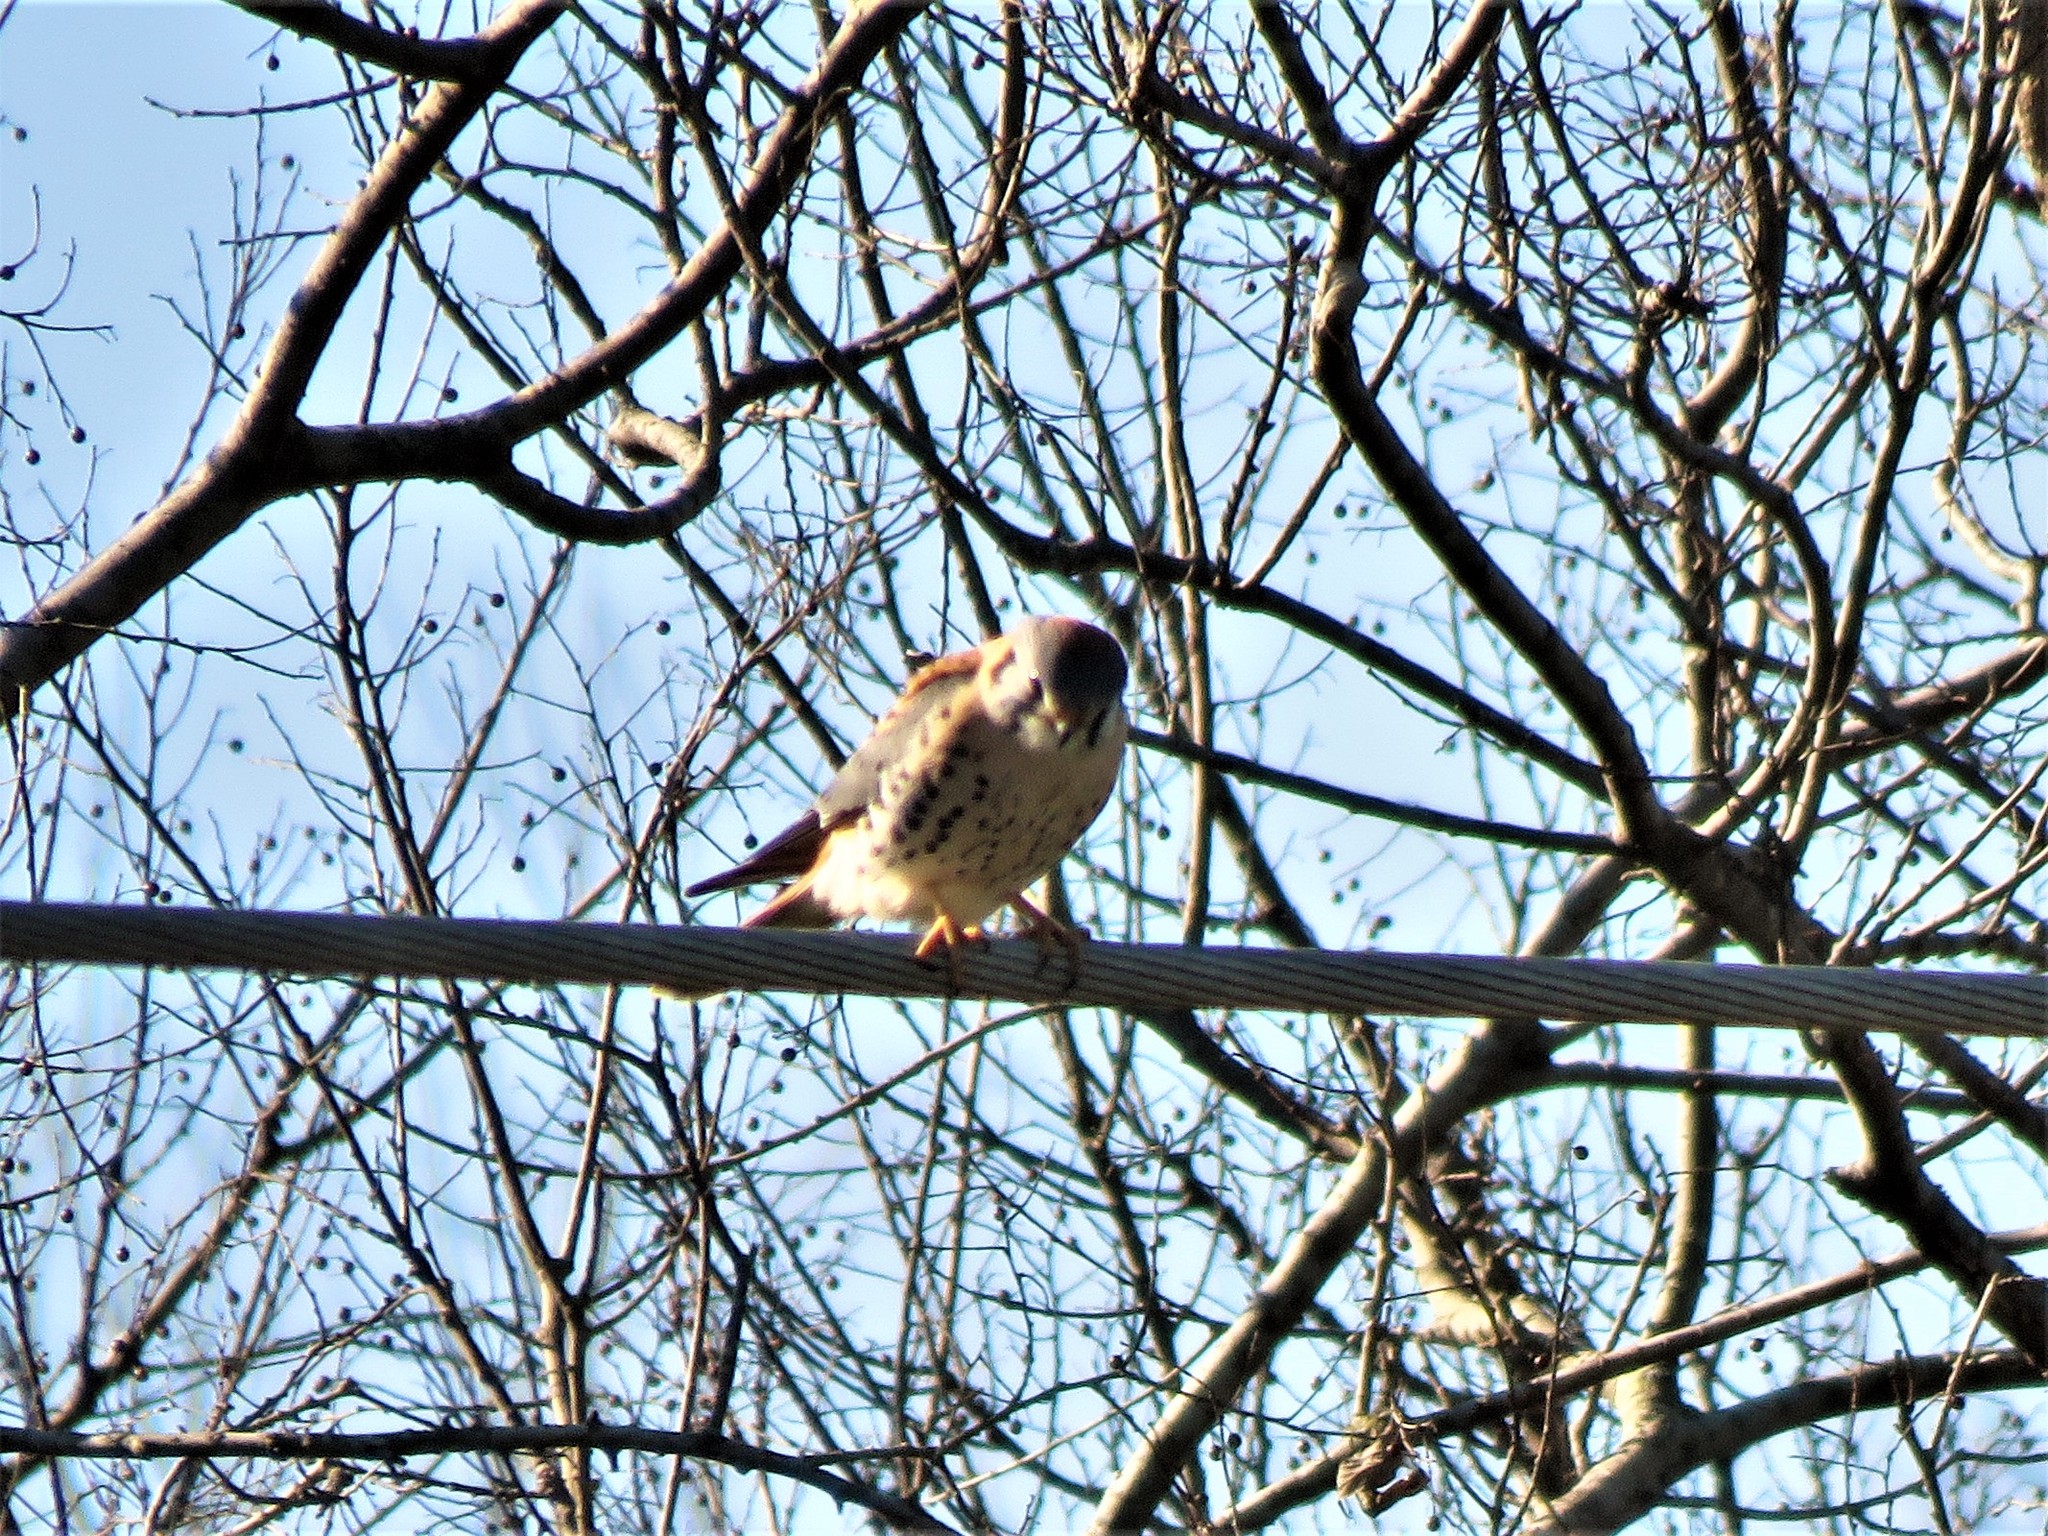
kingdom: Animalia
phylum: Chordata
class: Aves
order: Falconiformes
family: Falconidae
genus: Falco
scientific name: Falco sparverius
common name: American kestrel
